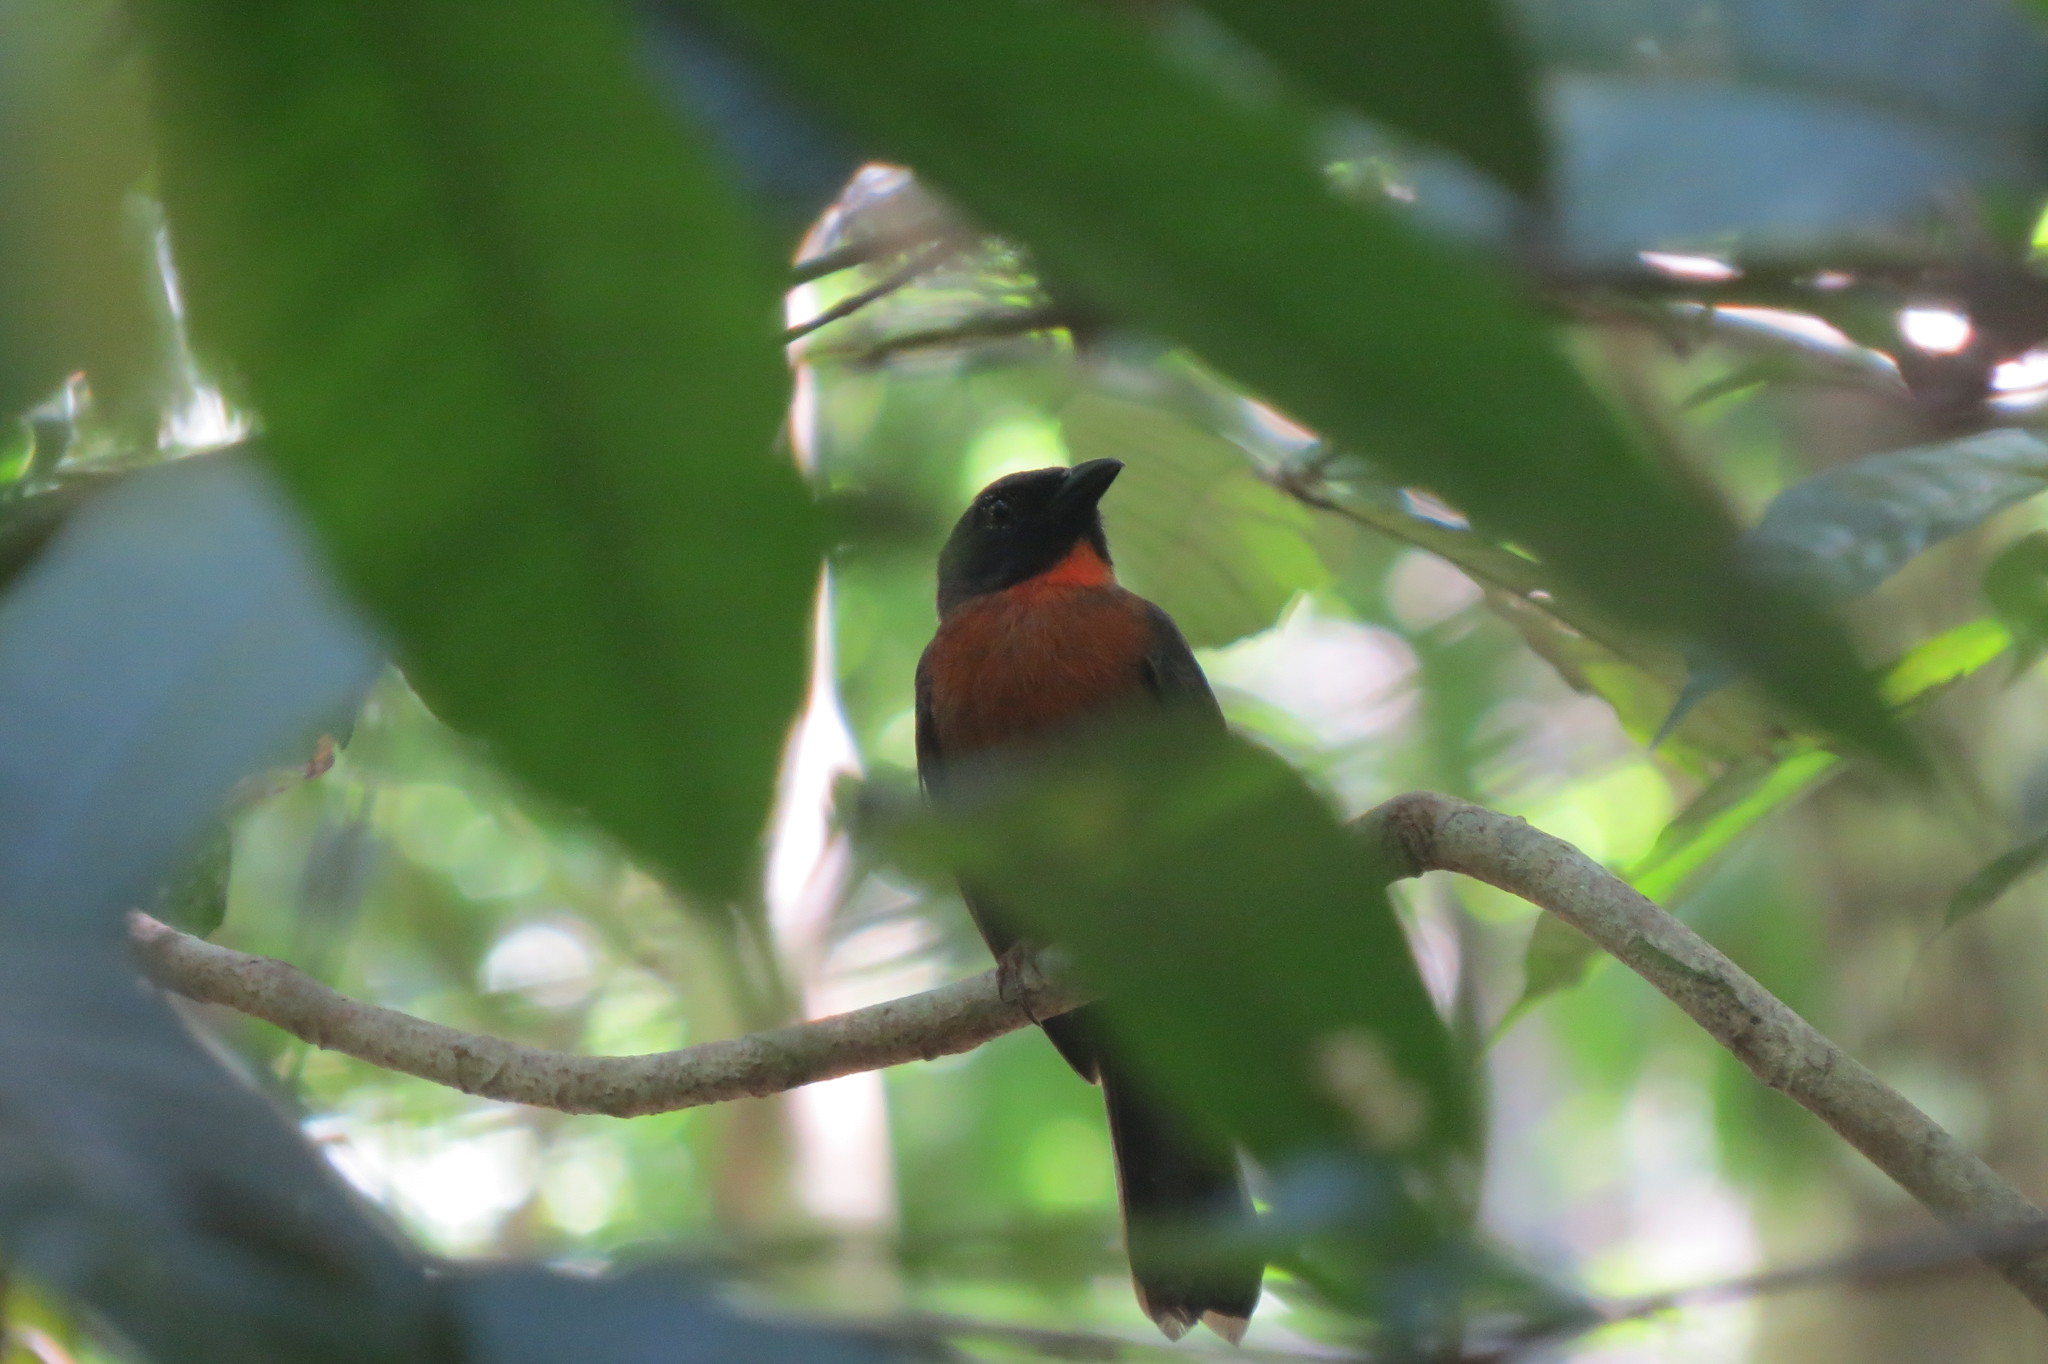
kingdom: Animalia
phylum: Chordata
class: Aves
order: Passeriformes
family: Cardinalidae
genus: Habia
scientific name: Habia atrimaxillaris
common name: Black-cheeked ant-tanager
